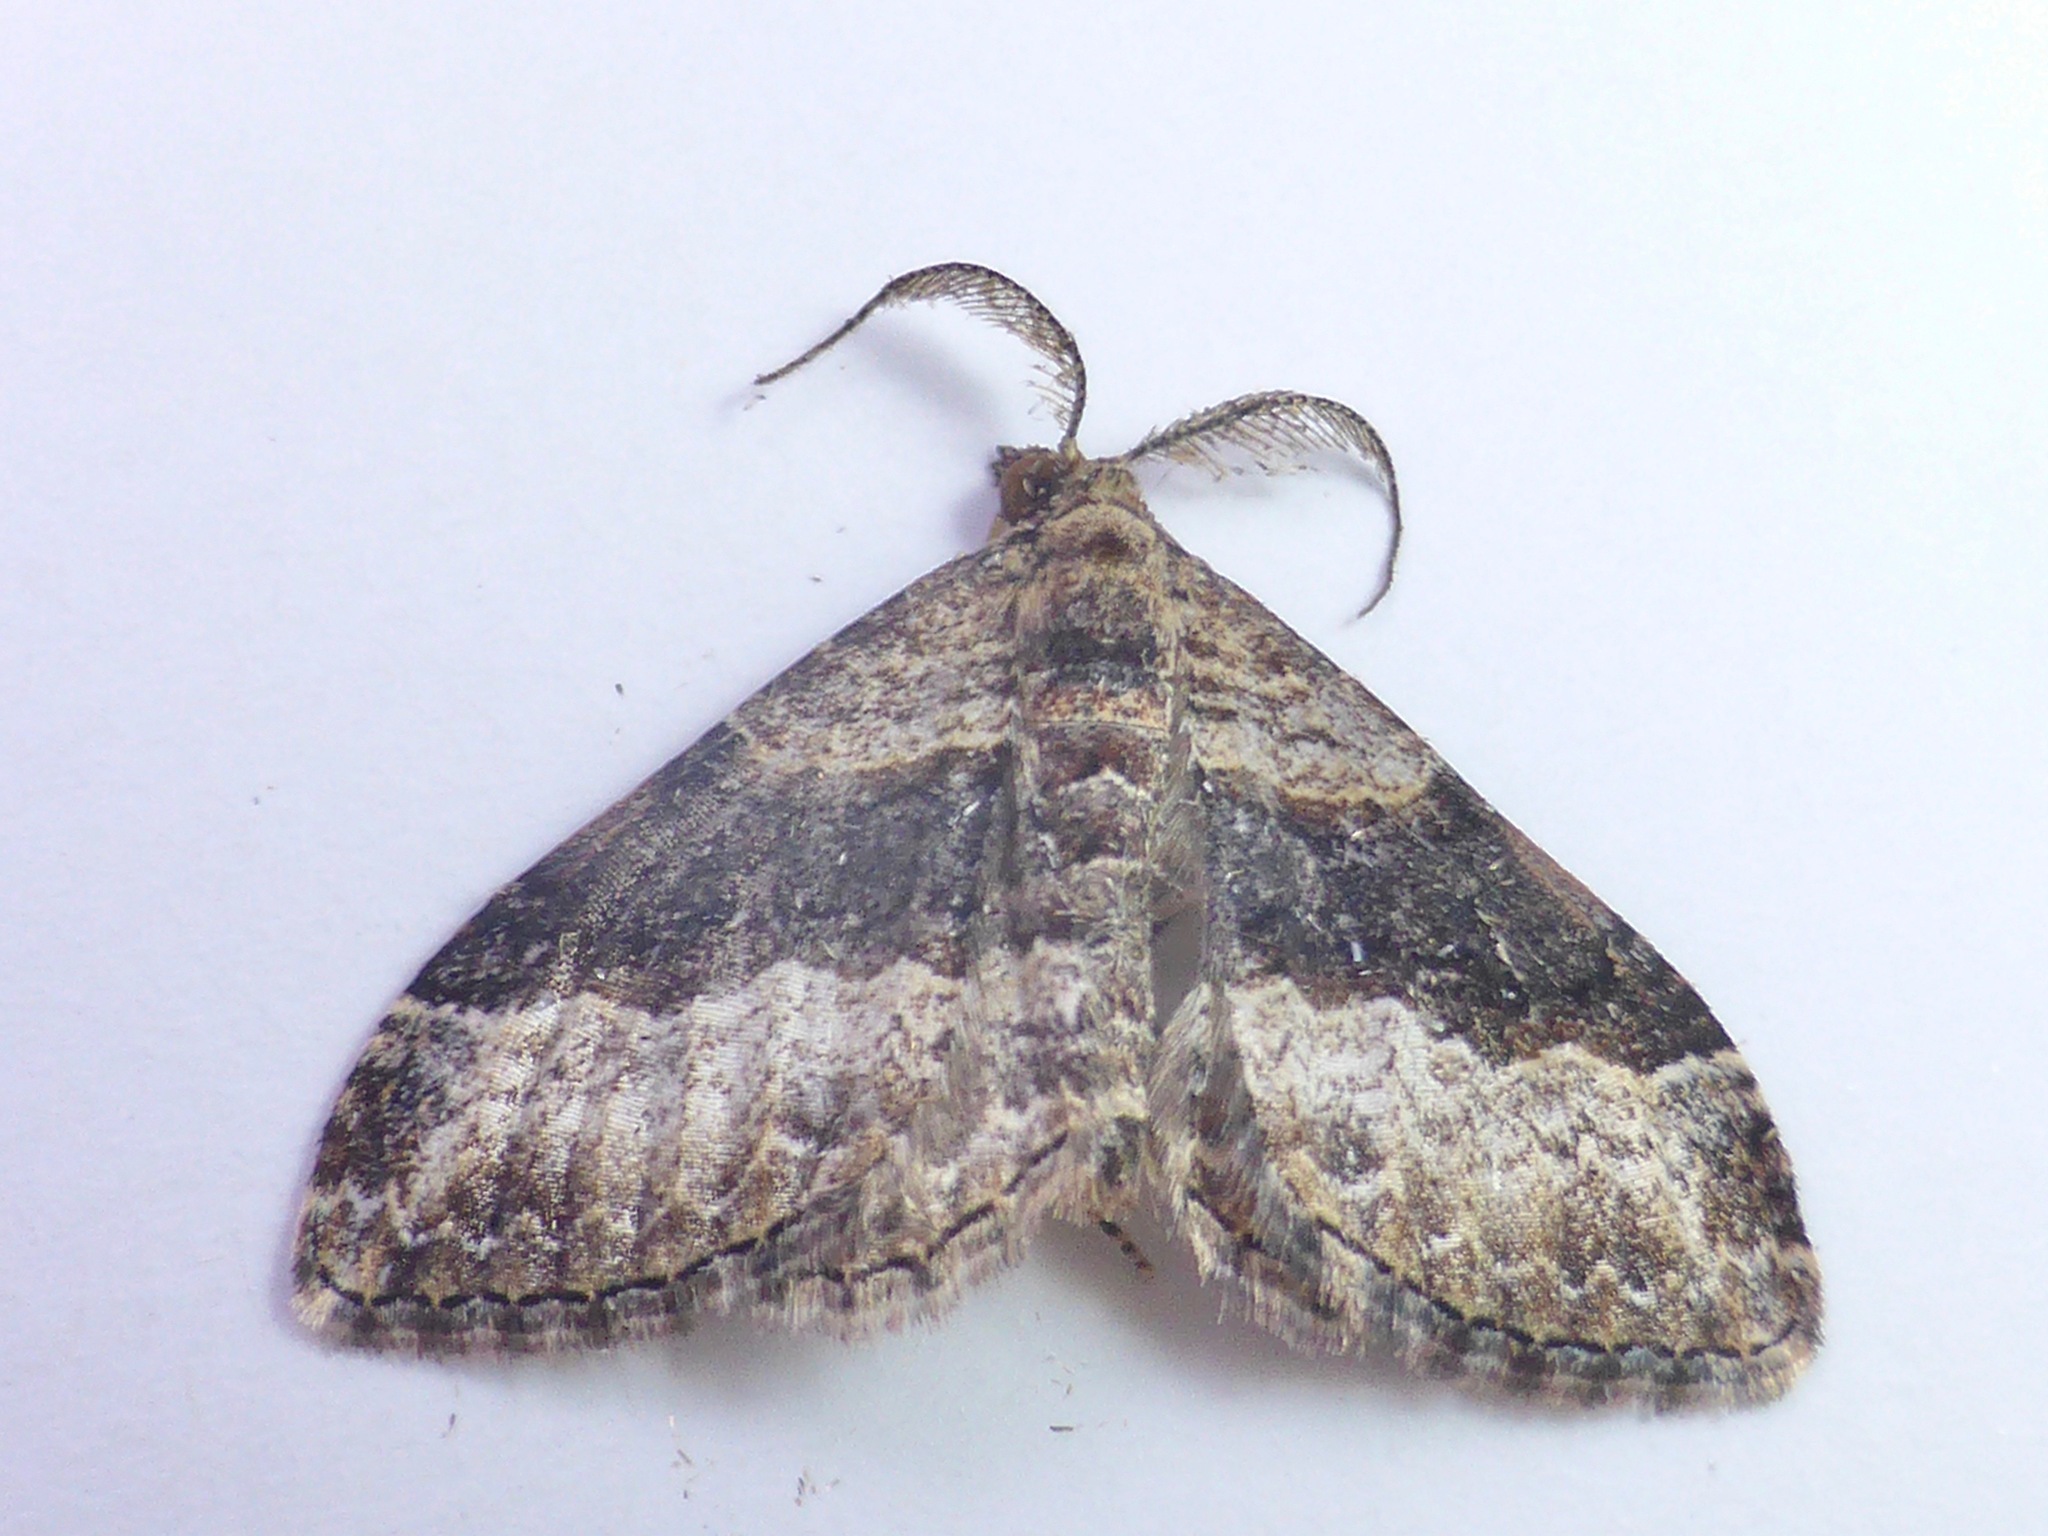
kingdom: Animalia
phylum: Arthropoda
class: Insecta
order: Lepidoptera
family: Geometridae
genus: Epyaxa
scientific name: Epyaxa lucidata
